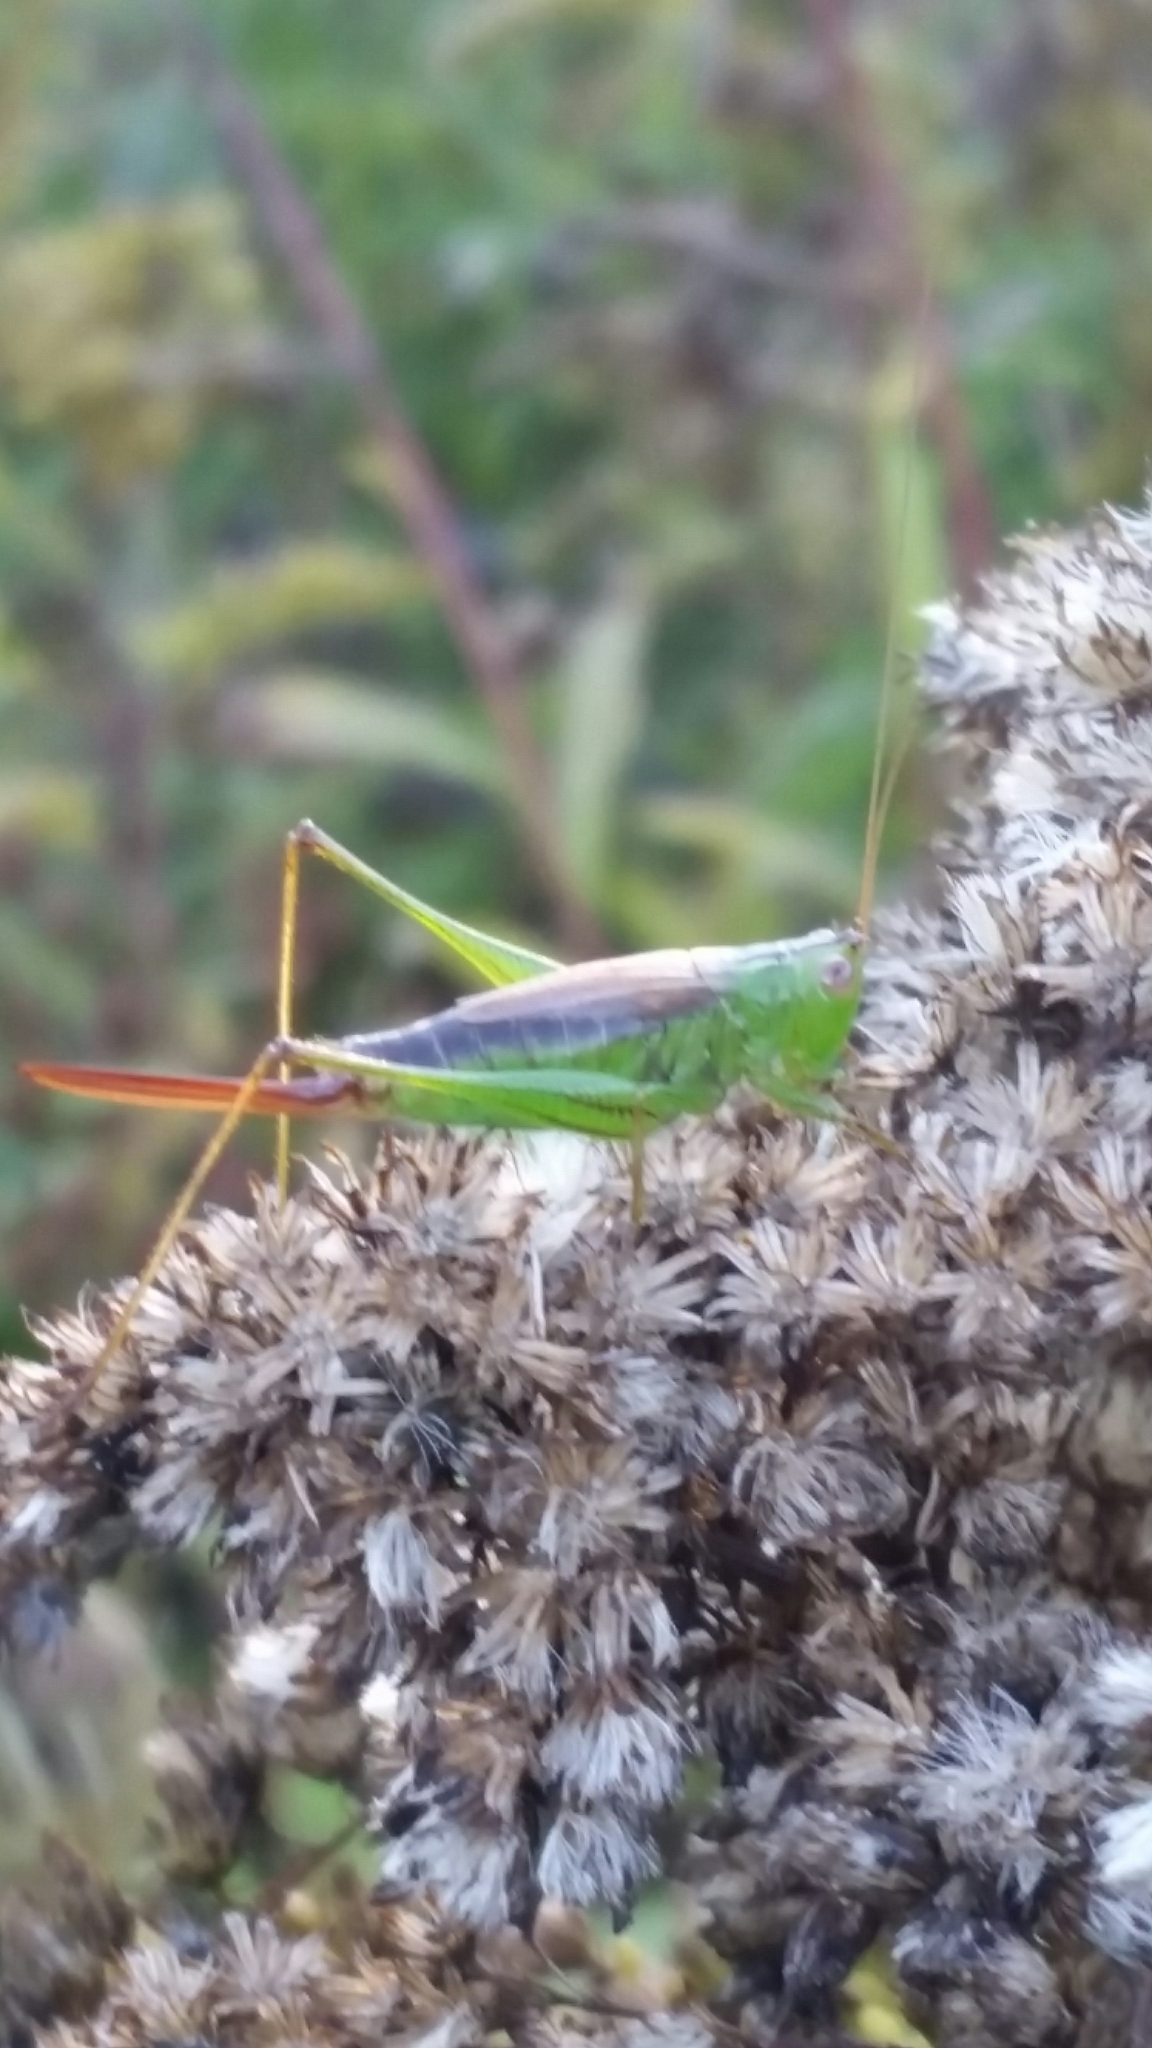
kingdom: Animalia
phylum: Arthropoda
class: Insecta
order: Orthoptera
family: Tettigoniidae
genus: Conocephalus
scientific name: Conocephalus brevipennis
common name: Short-winged meadow katydid
